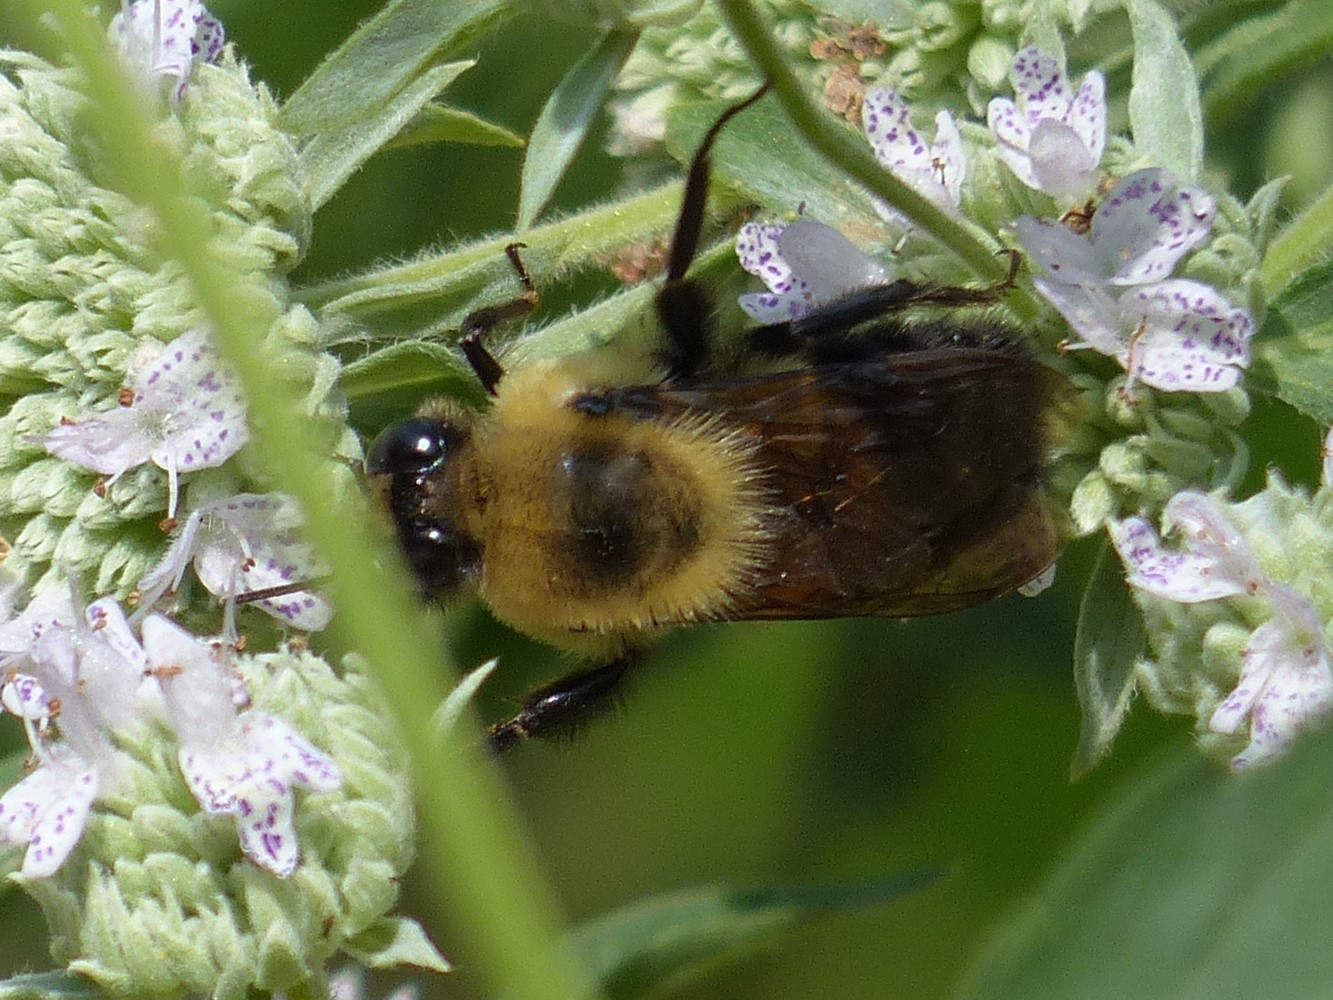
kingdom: Animalia
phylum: Arthropoda
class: Insecta
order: Hymenoptera
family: Apidae
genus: Bombus
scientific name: Bombus griseocollis
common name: Brown-belted bumble bee
